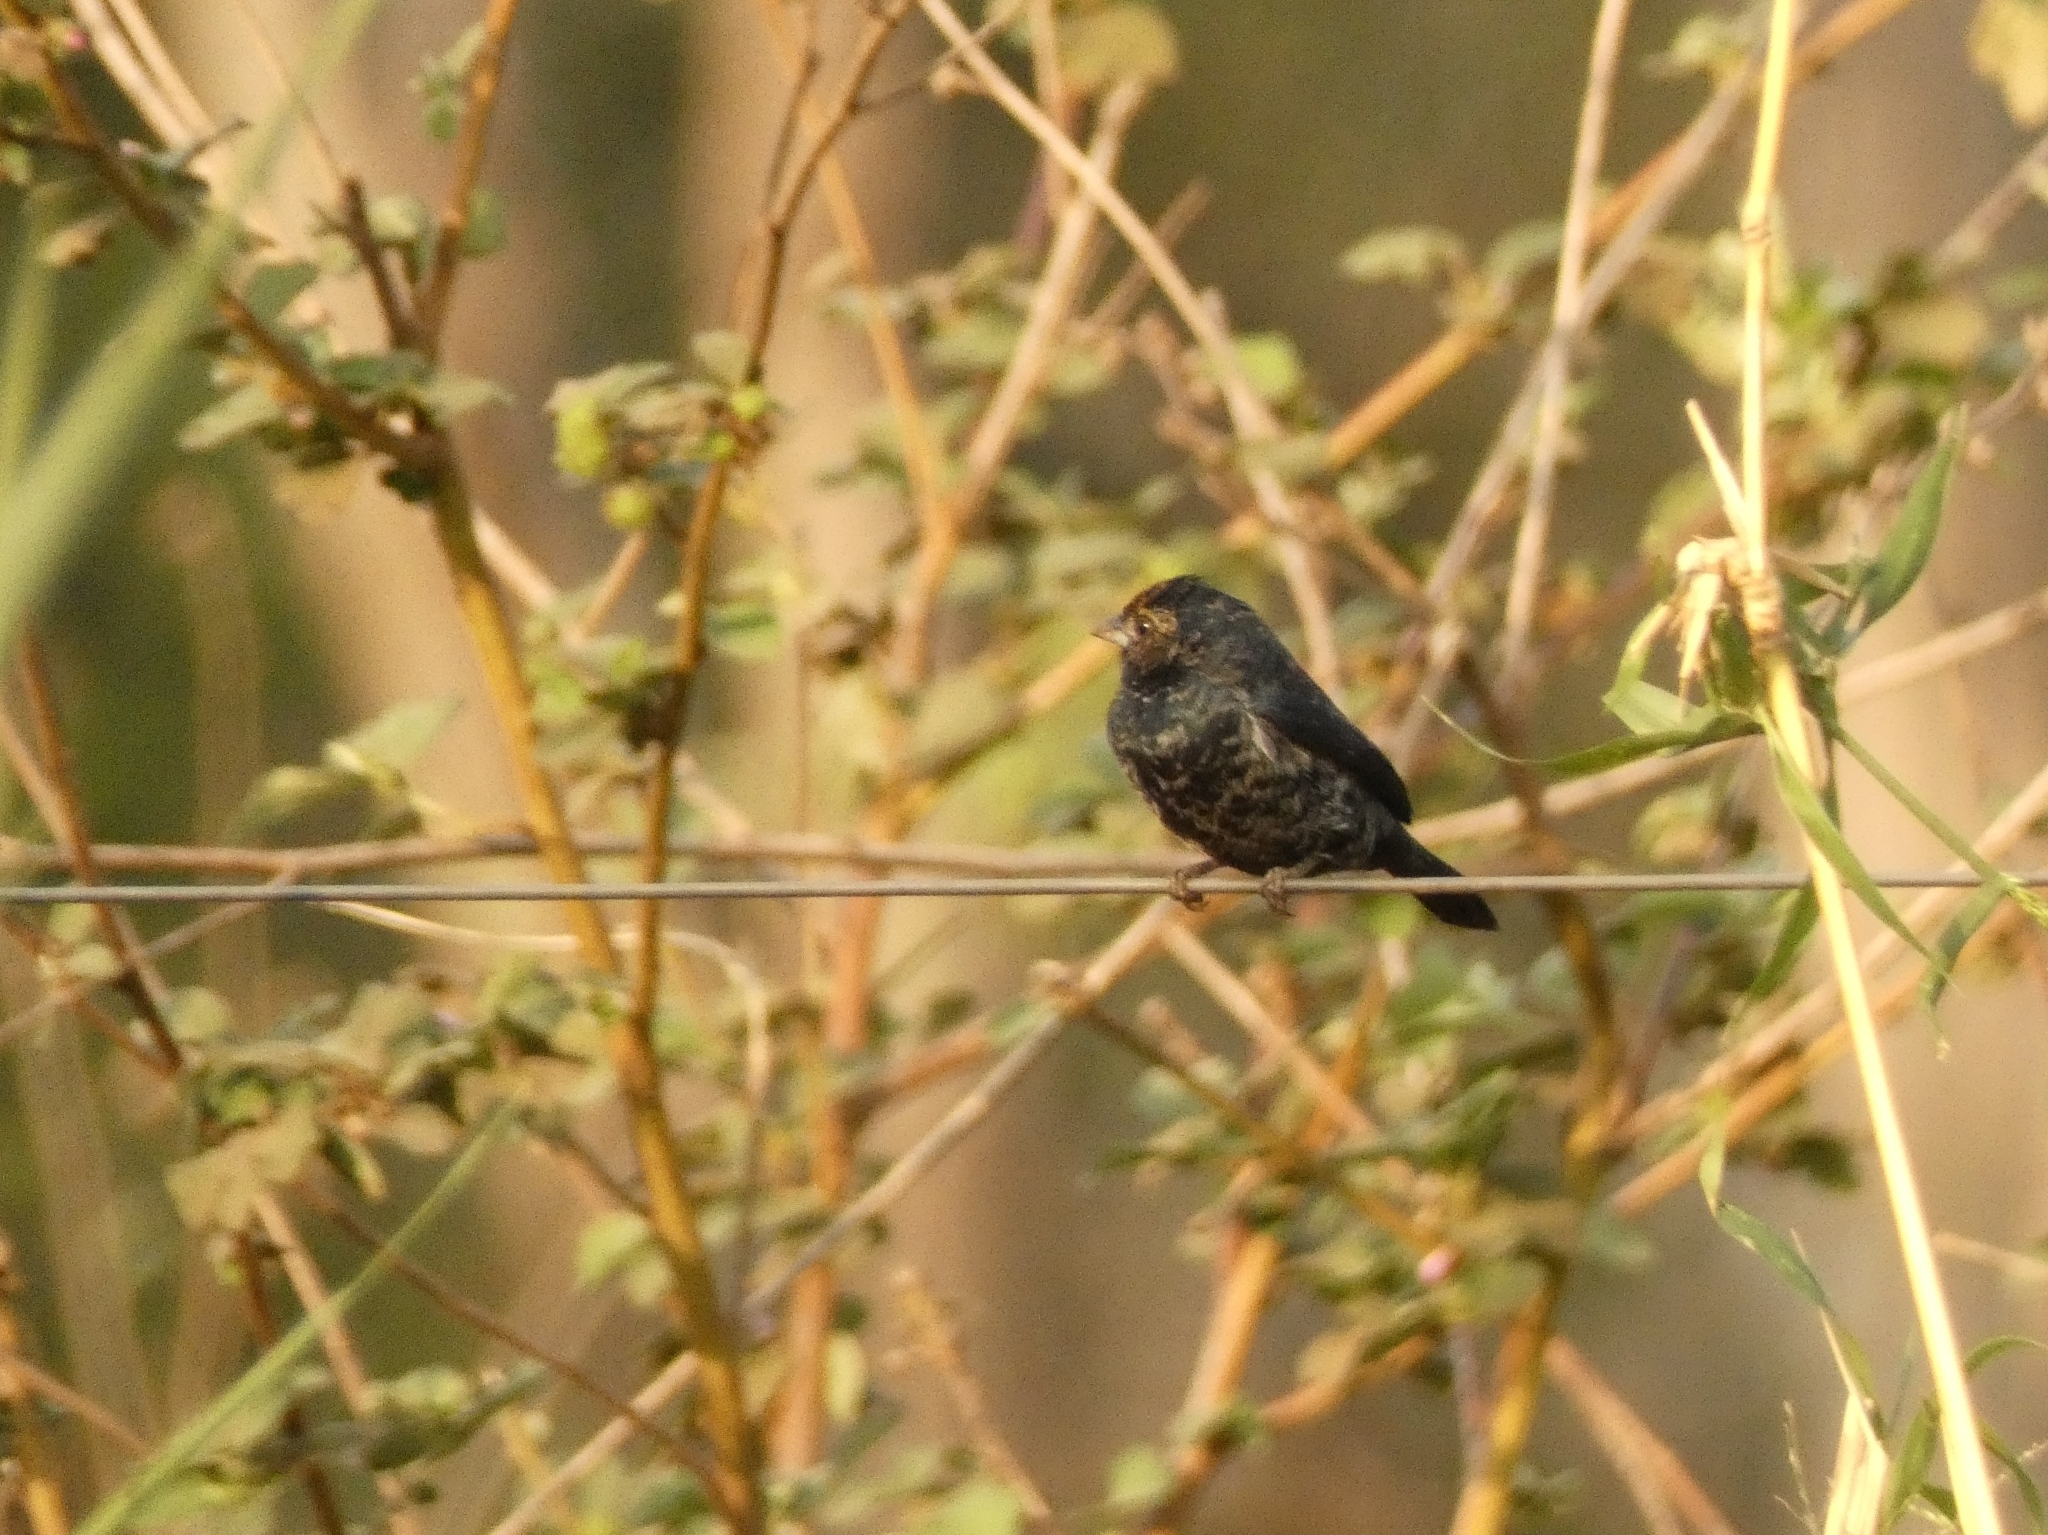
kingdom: Animalia
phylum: Chordata
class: Aves
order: Passeriformes
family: Thraupidae
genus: Volatinia
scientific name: Volatinia jacarina
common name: Blue-black grassquit
